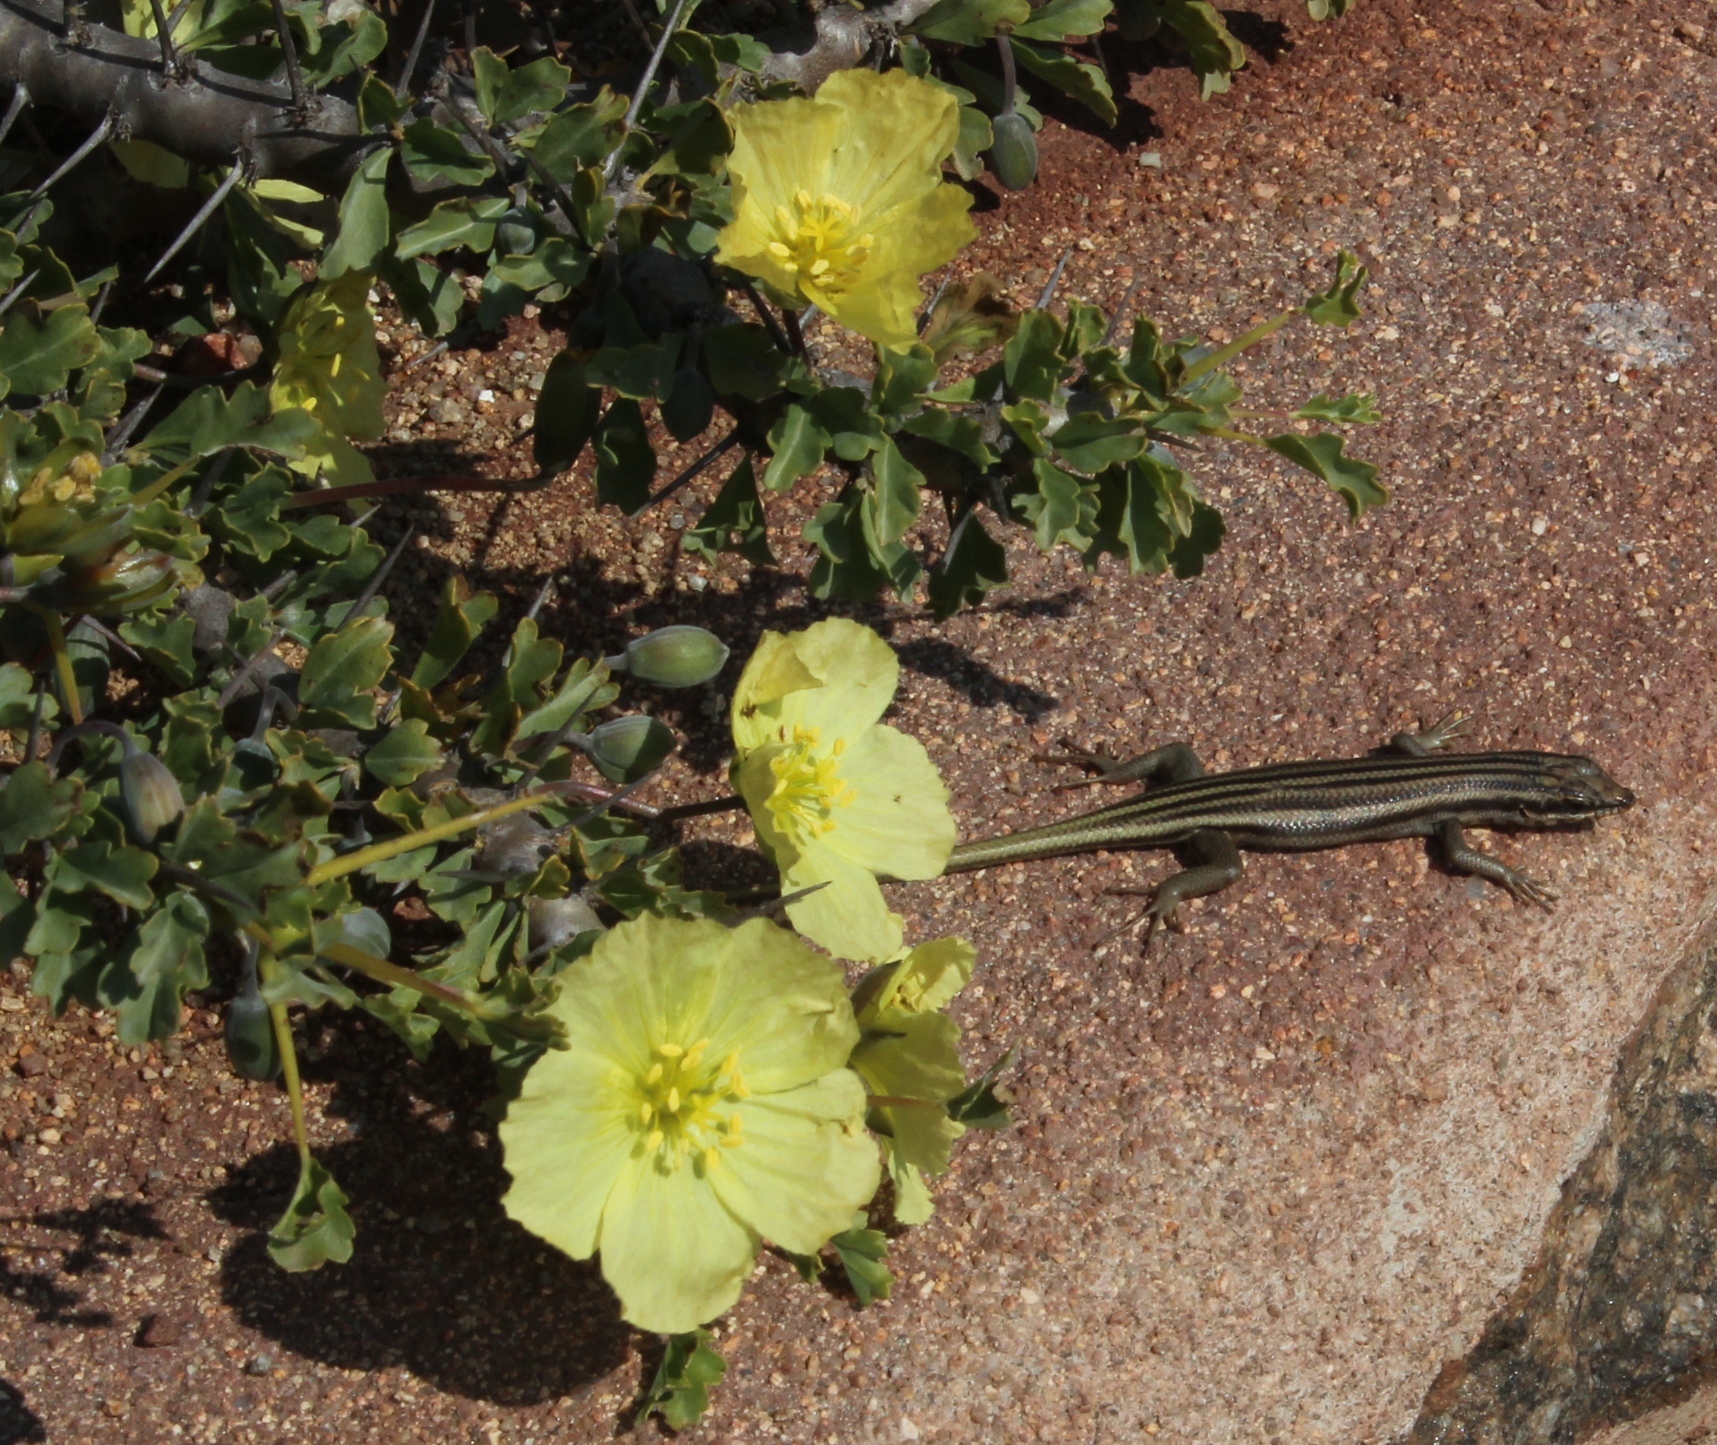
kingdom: Plantae
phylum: Tracheophyta
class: Magnoliopsida
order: Geraniales
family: Geraniaceae
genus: Monsonia
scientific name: Monsonia ciliata
